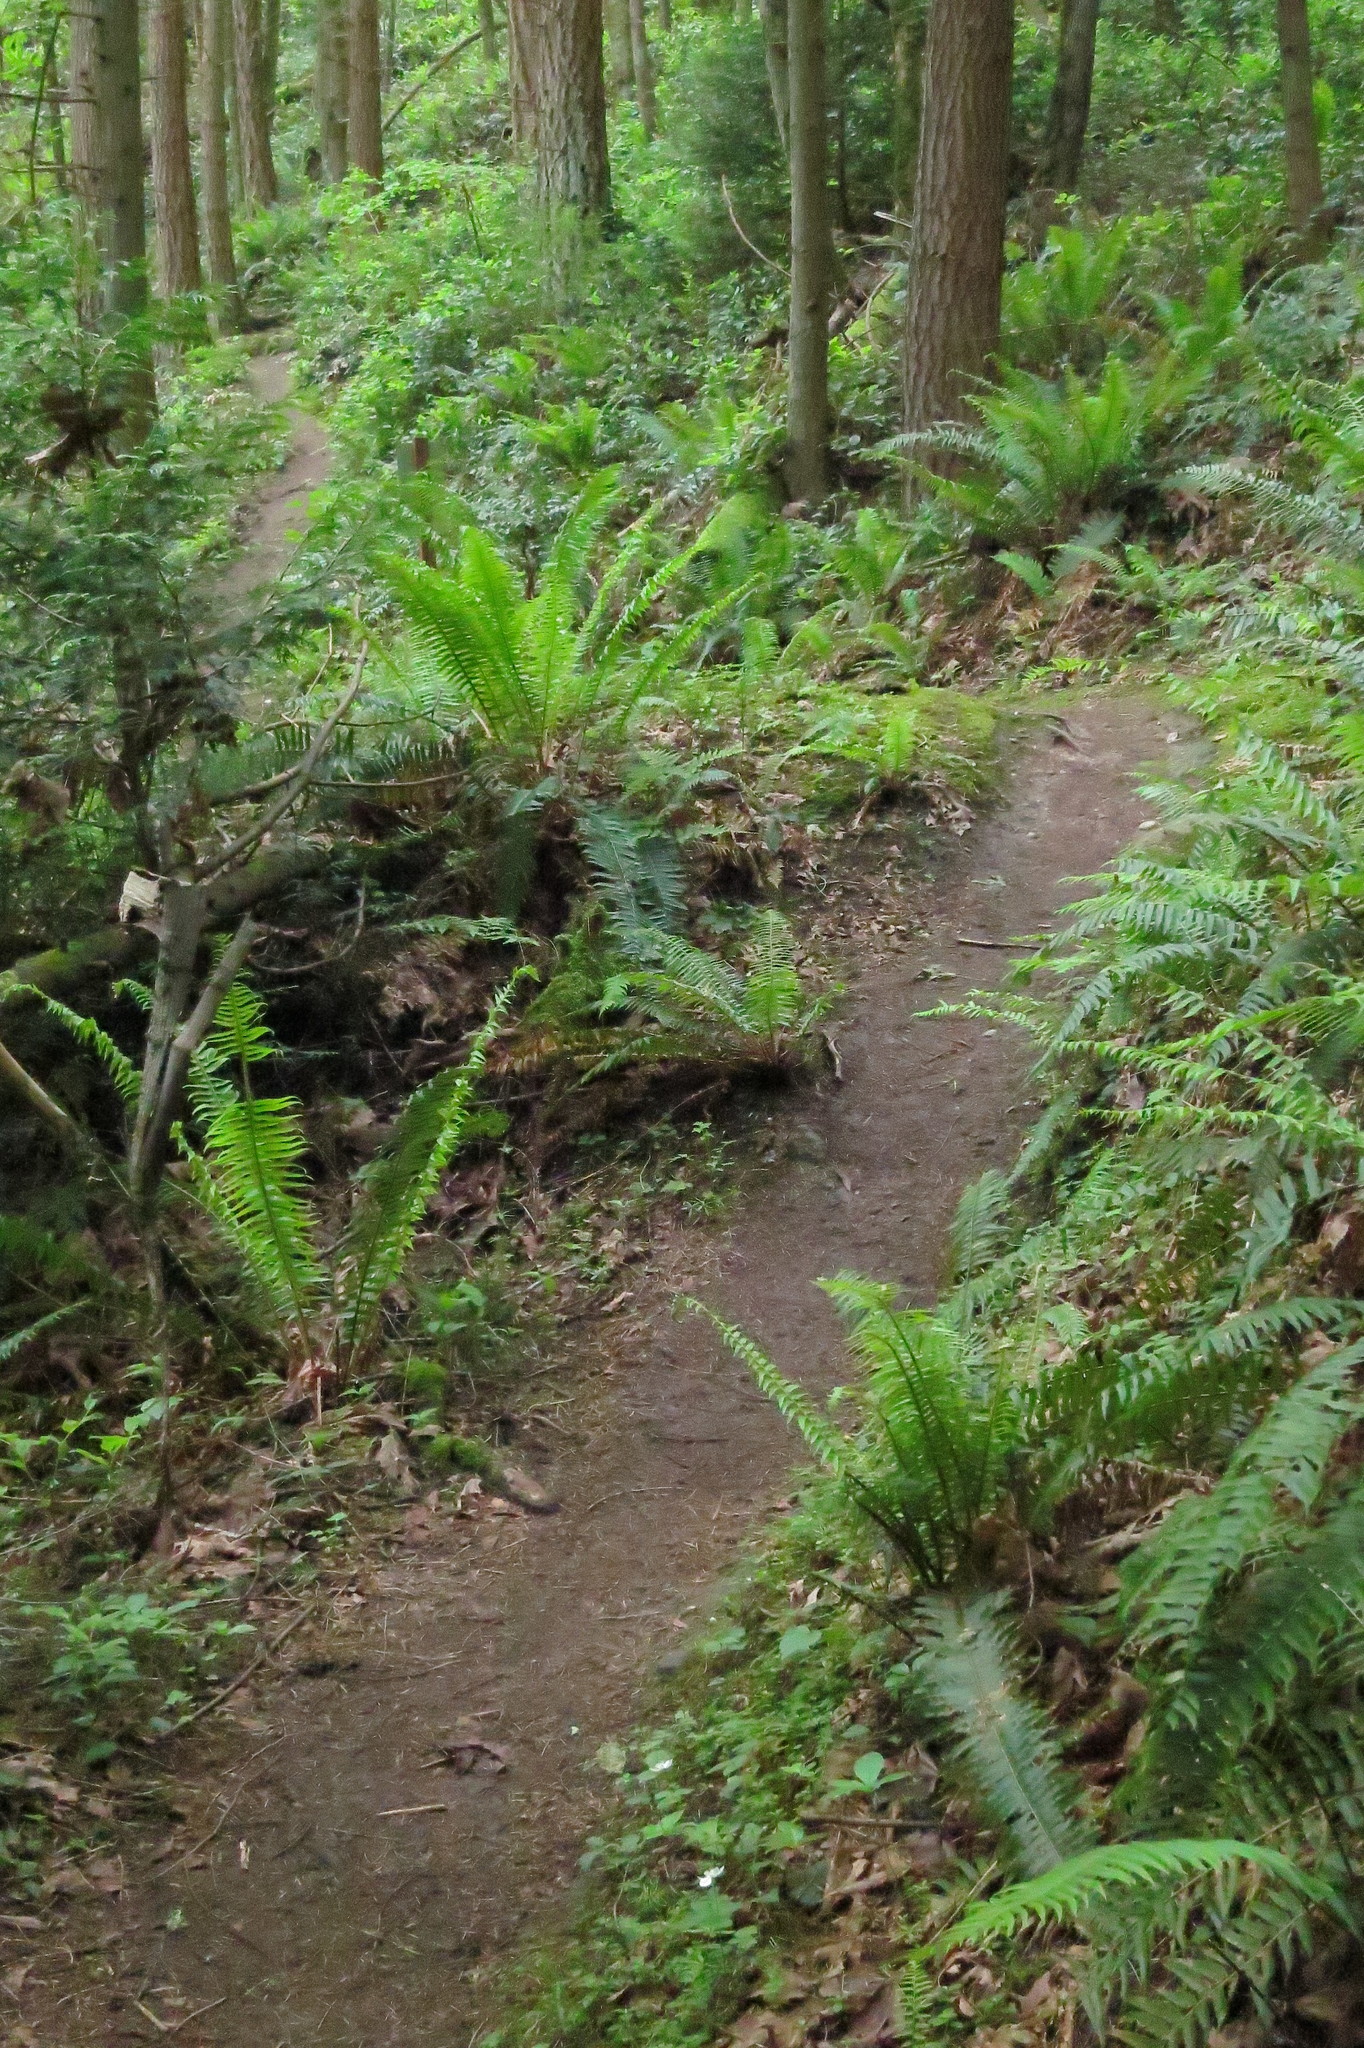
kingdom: Plantae
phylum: Tracheophyta
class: Magnoliopsida
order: Ranunculales
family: Ranunculaceae
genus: Anemonastrum
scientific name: Anemonastrum deltoideum
